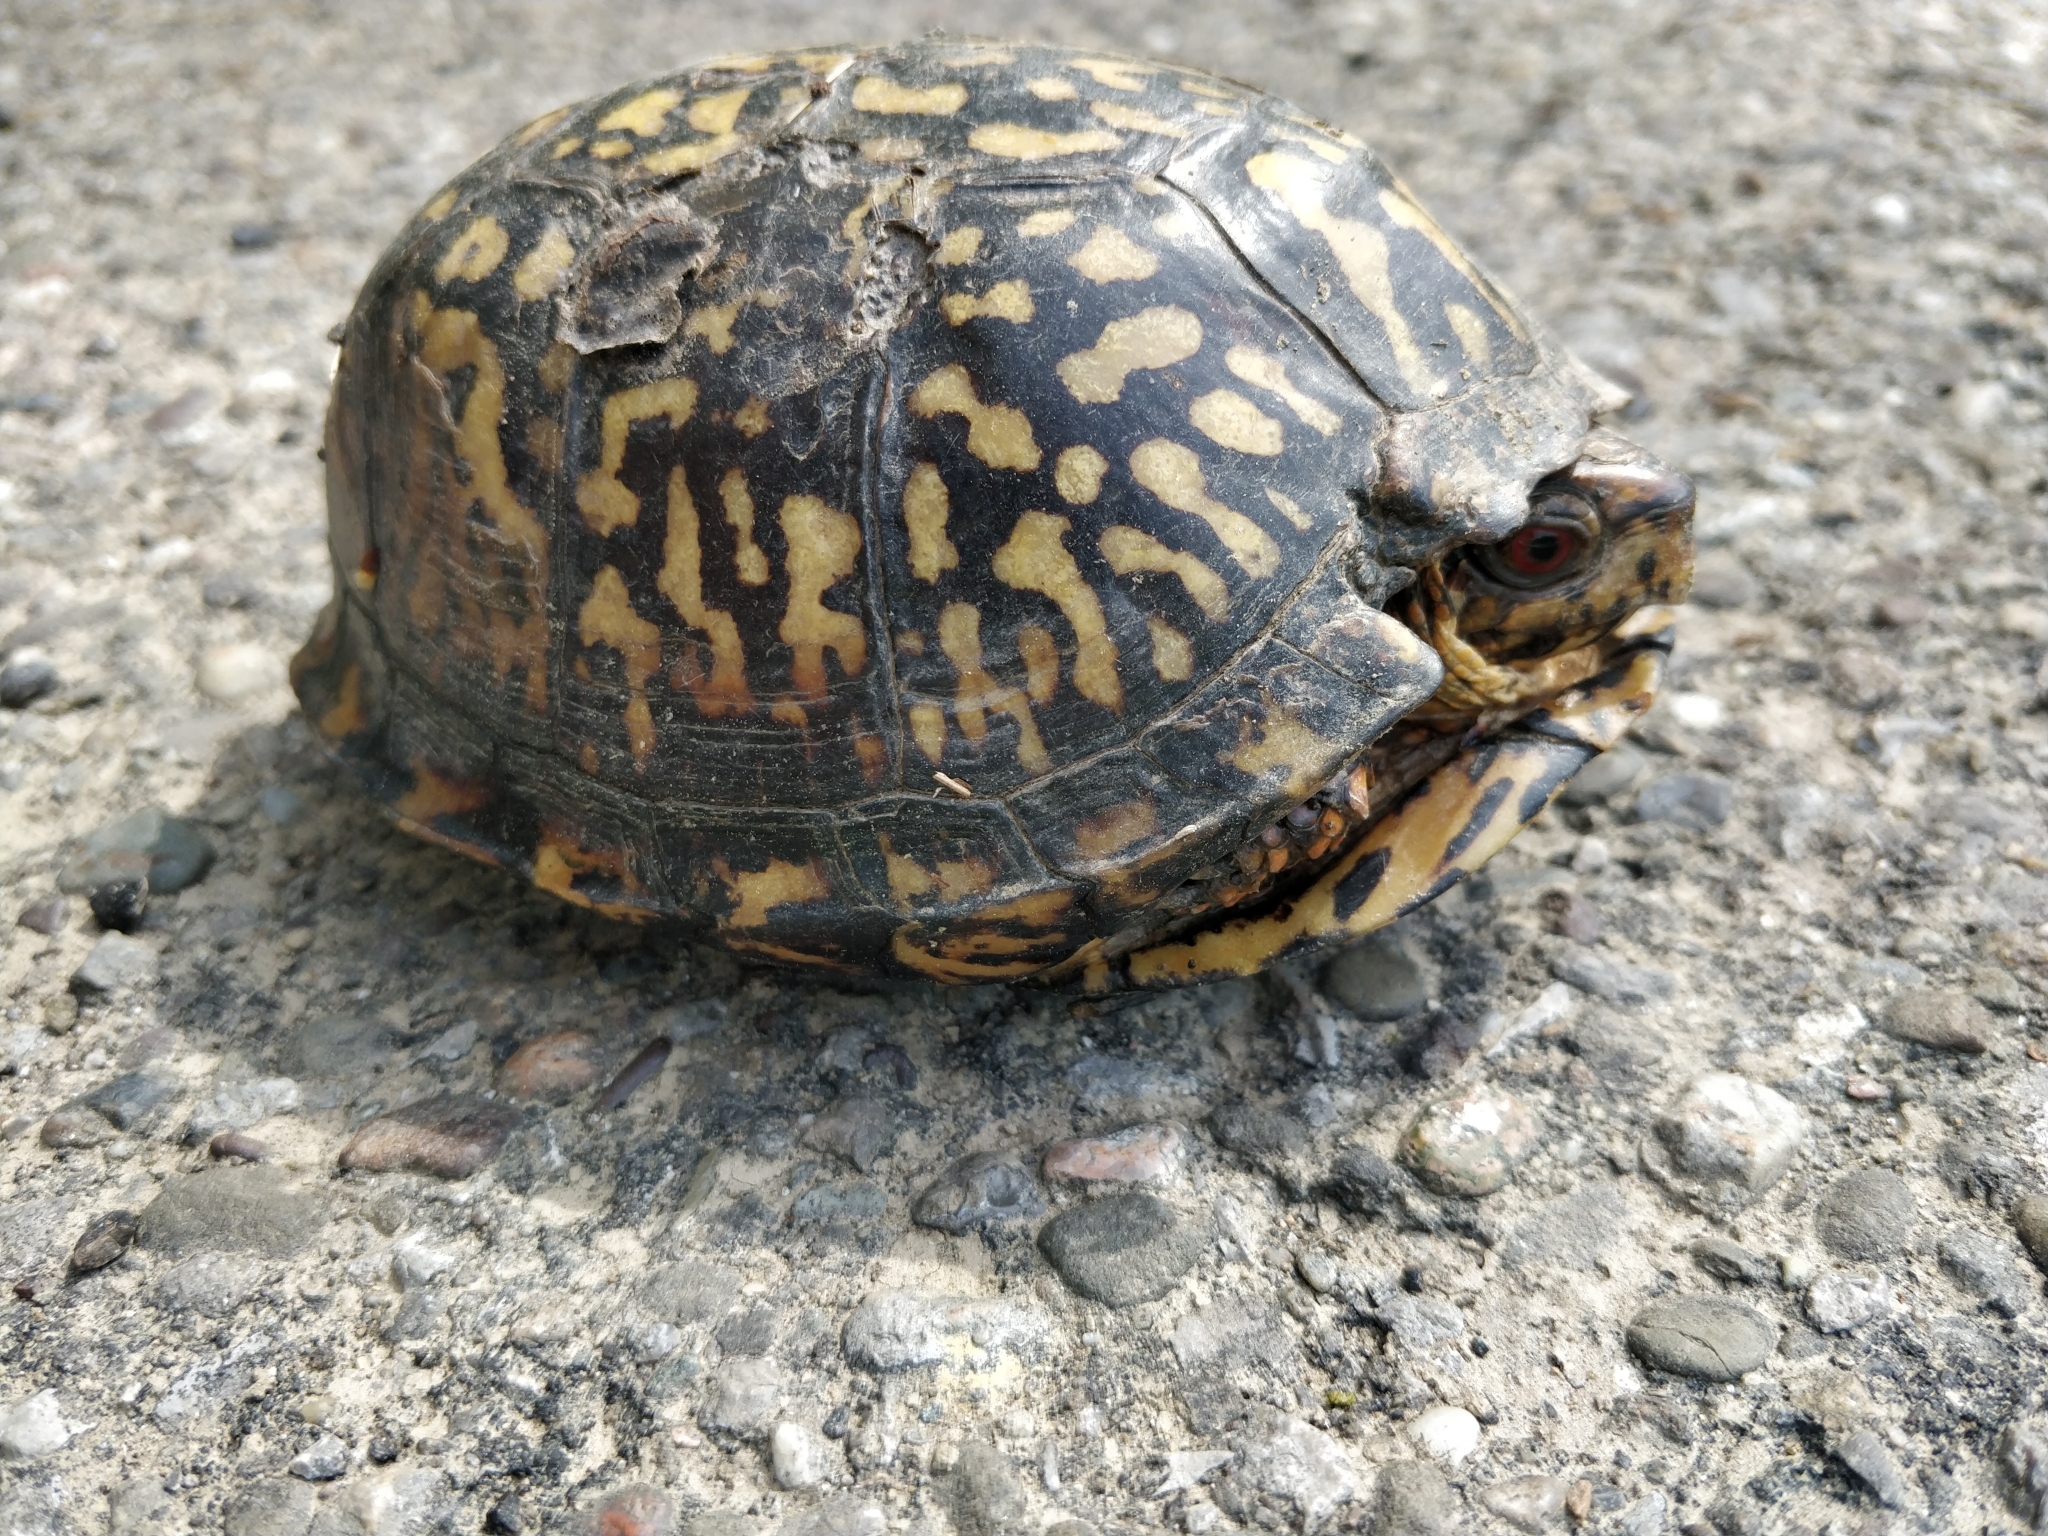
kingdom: Animalia
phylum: Chordata
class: Testudines
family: Emydidae
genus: Terrapene
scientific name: Terrapene carolina
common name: Common box turtle
